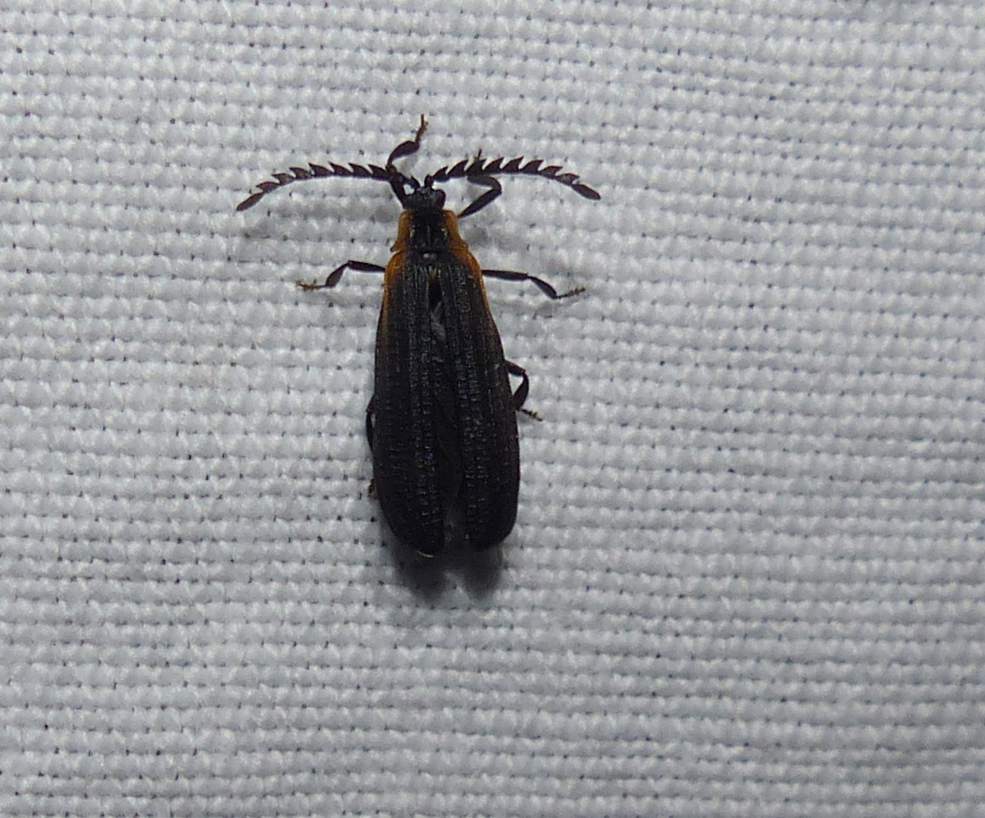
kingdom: Animalia
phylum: Arthropoda
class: Insecta
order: Coleoptera
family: Lycidae
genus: Leptoceletes
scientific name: Leptoceletes basalis
